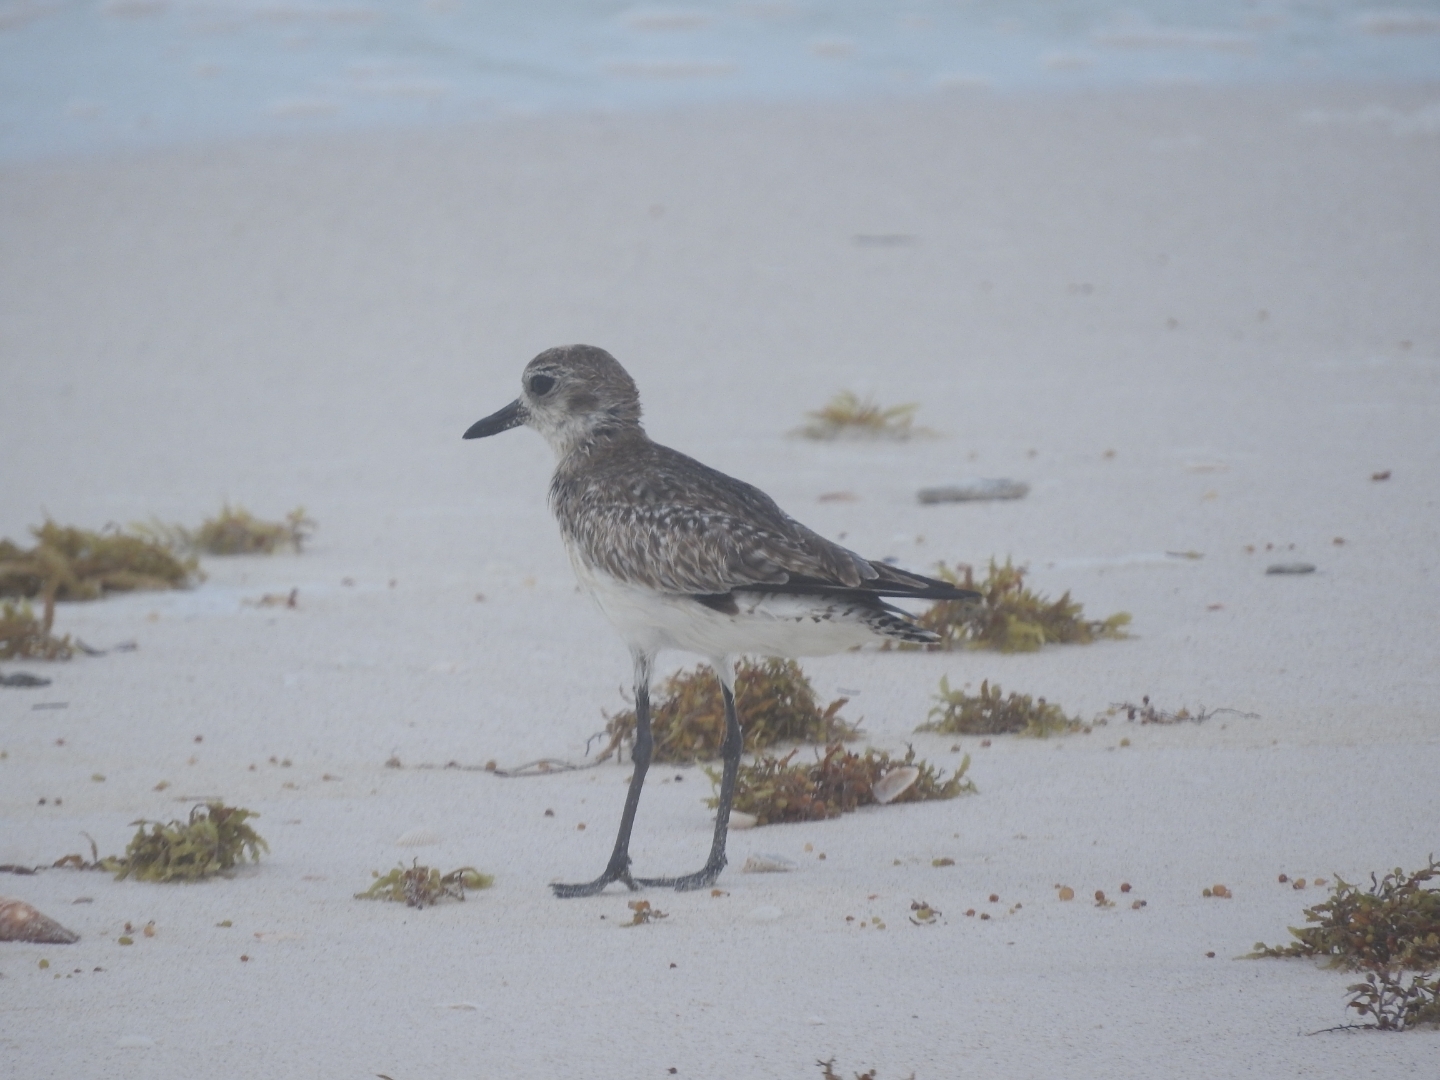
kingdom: Animalia
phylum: Chordata
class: Aves
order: Charadriiformes
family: Charadriidae
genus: Pluvialis
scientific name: Pluvialis squatarola
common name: Grey plover
